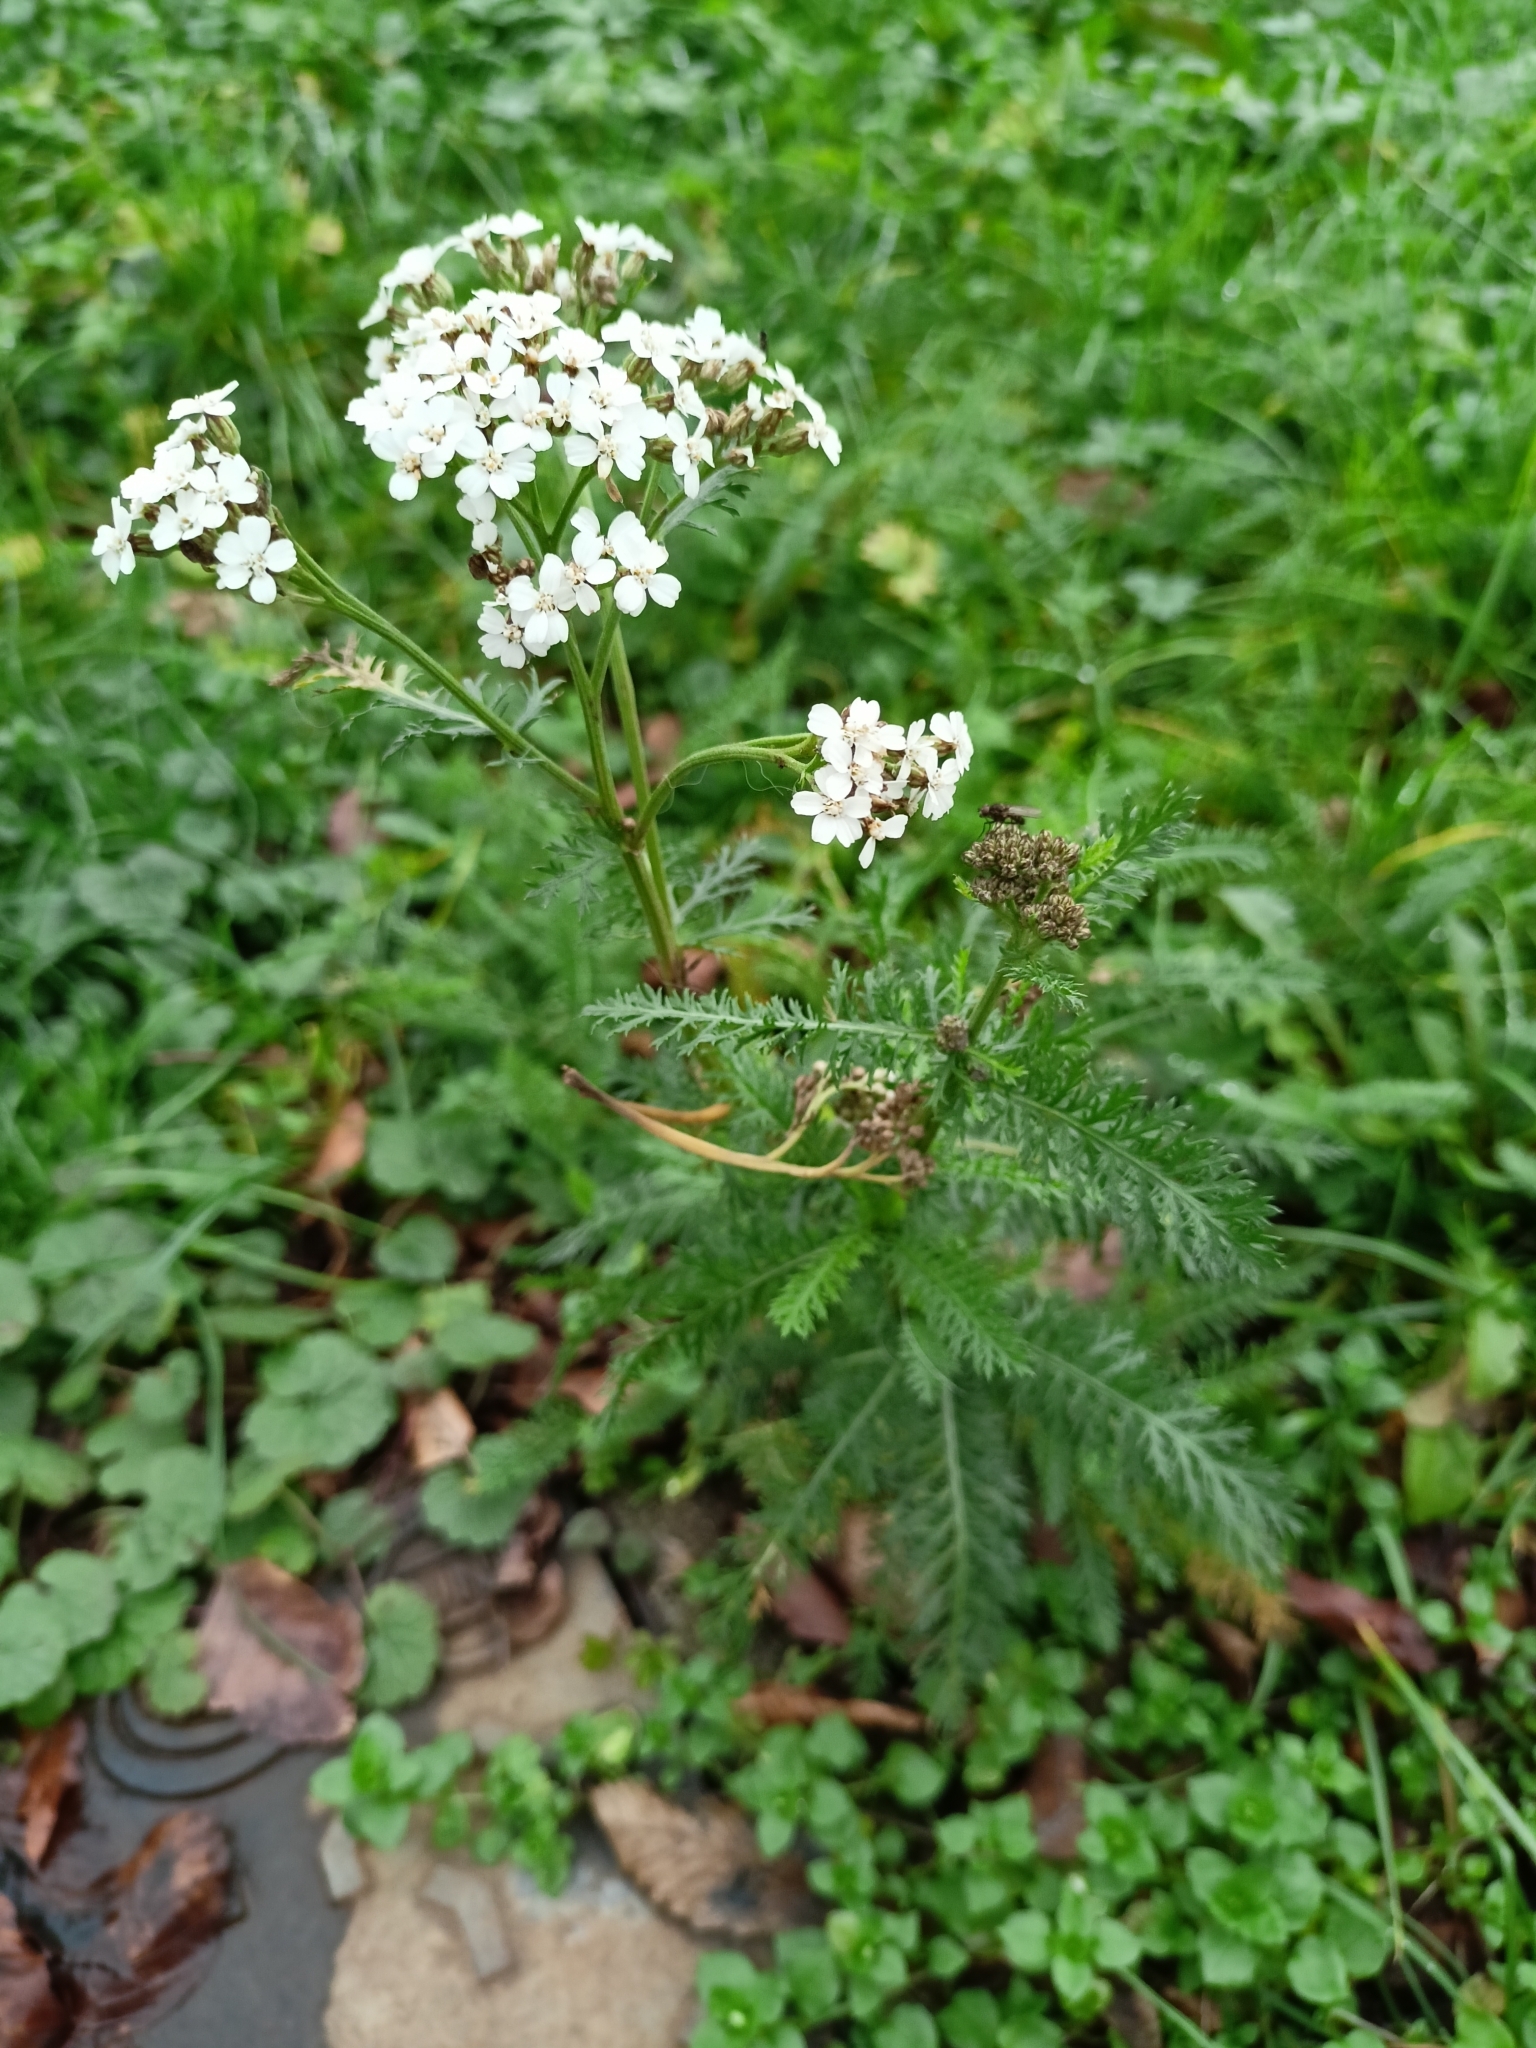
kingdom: Plantae
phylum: Tracheophyta
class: Magnoliopsida
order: Asterales
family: Asteraceae
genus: Achillea
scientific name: Achillea millefolium
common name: Yarrow
